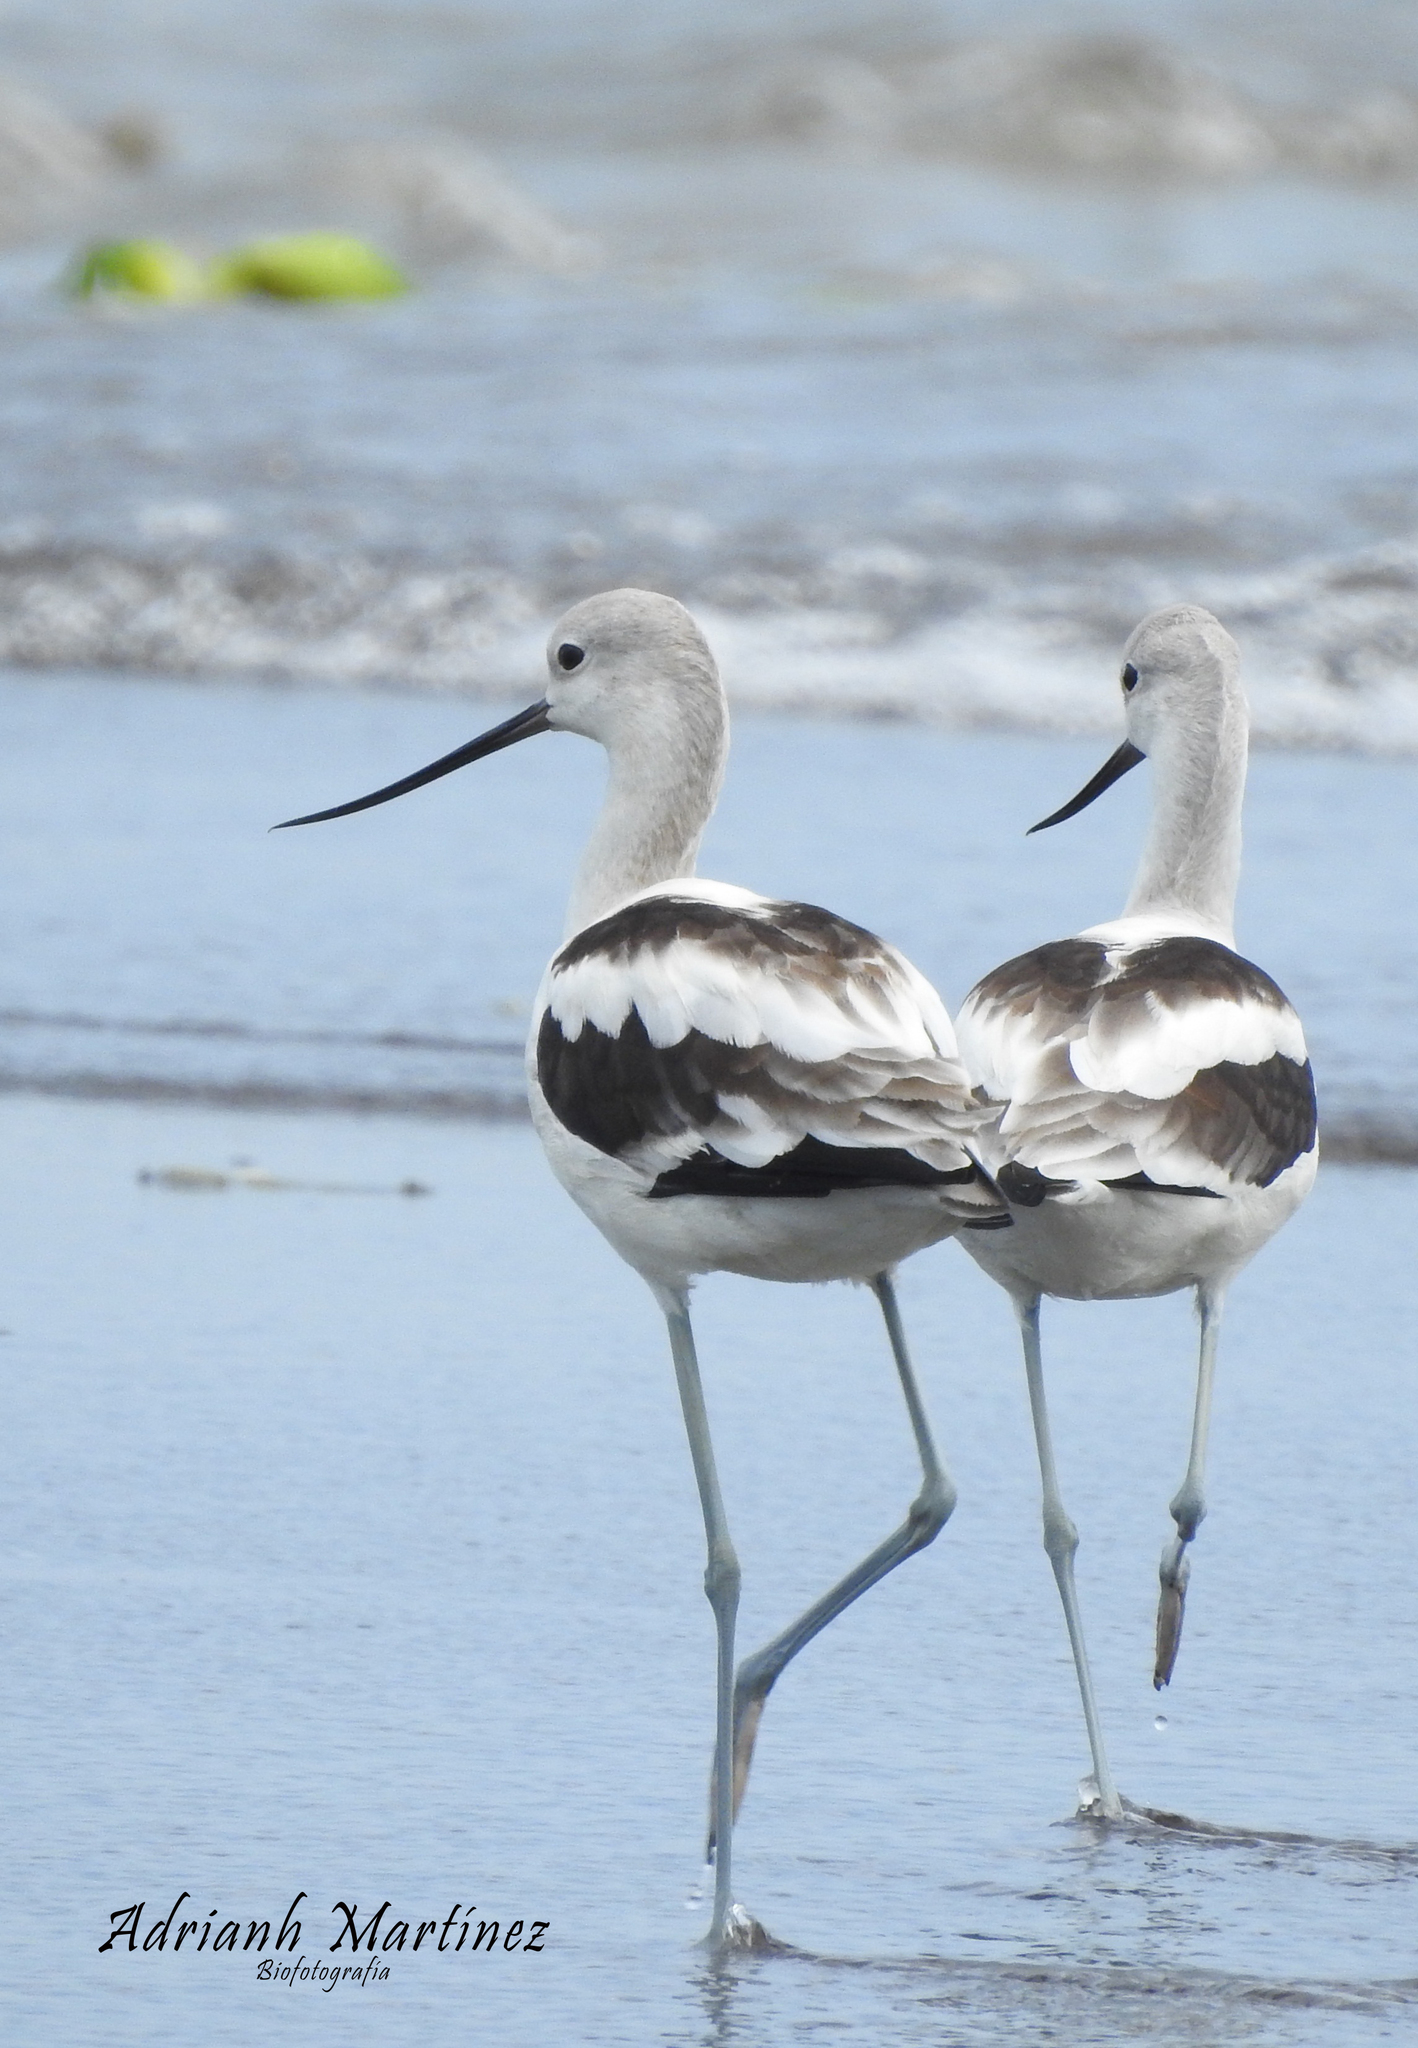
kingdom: Animalia
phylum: Chordata
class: Aves
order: Charadriiformes
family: Recurvirostridae
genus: Recurvirostra
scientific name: Recurvirostra americana
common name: American avocet
